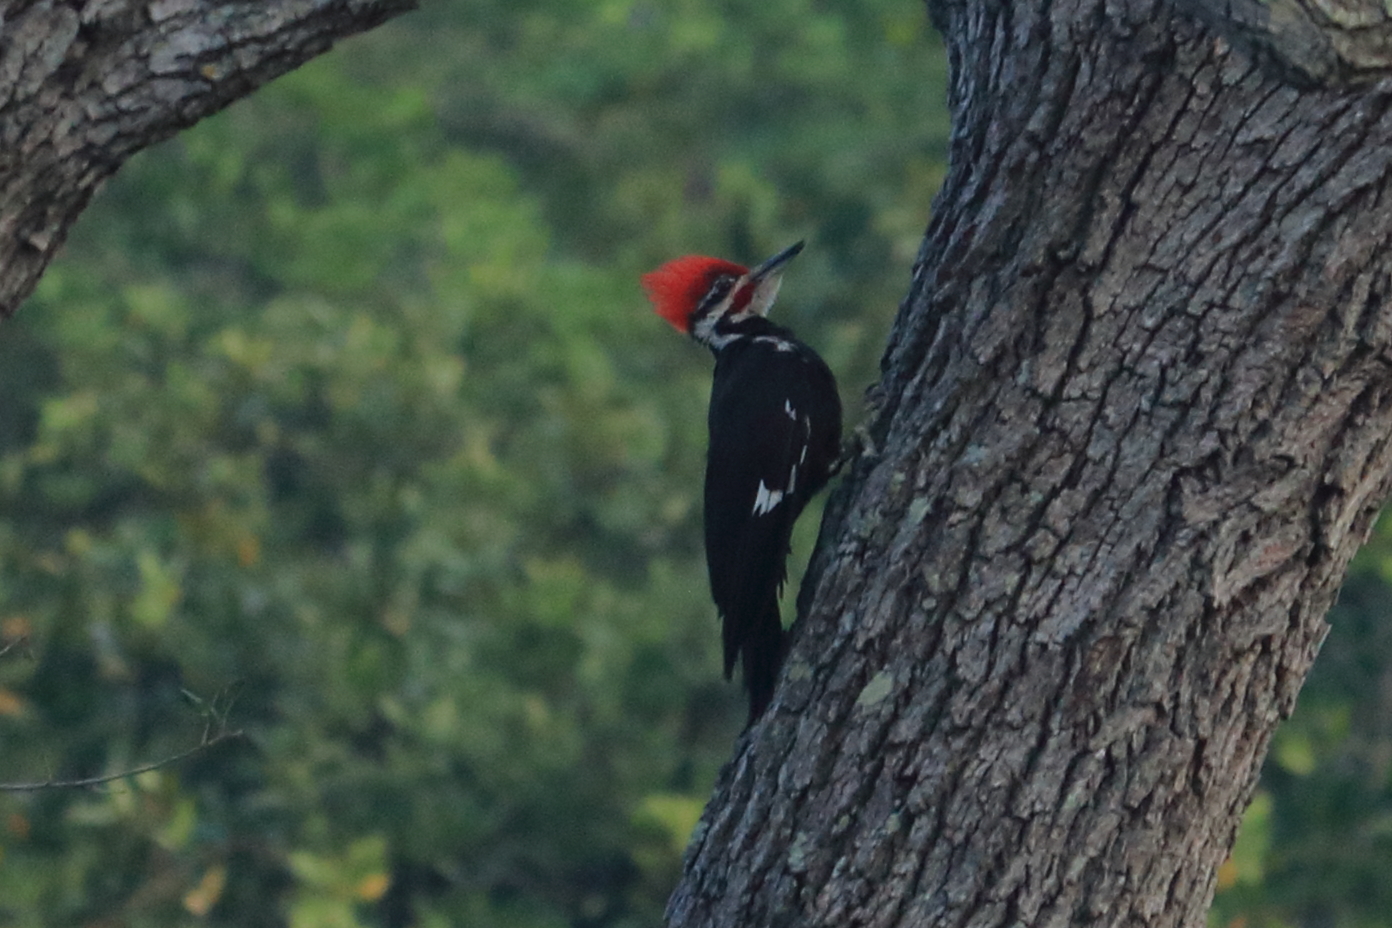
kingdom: Animalia
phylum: Chordata
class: Aves
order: Piciformes
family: Picidae
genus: Dryocopus
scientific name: Dryocopus pileatus
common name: Pileated woodpecker
